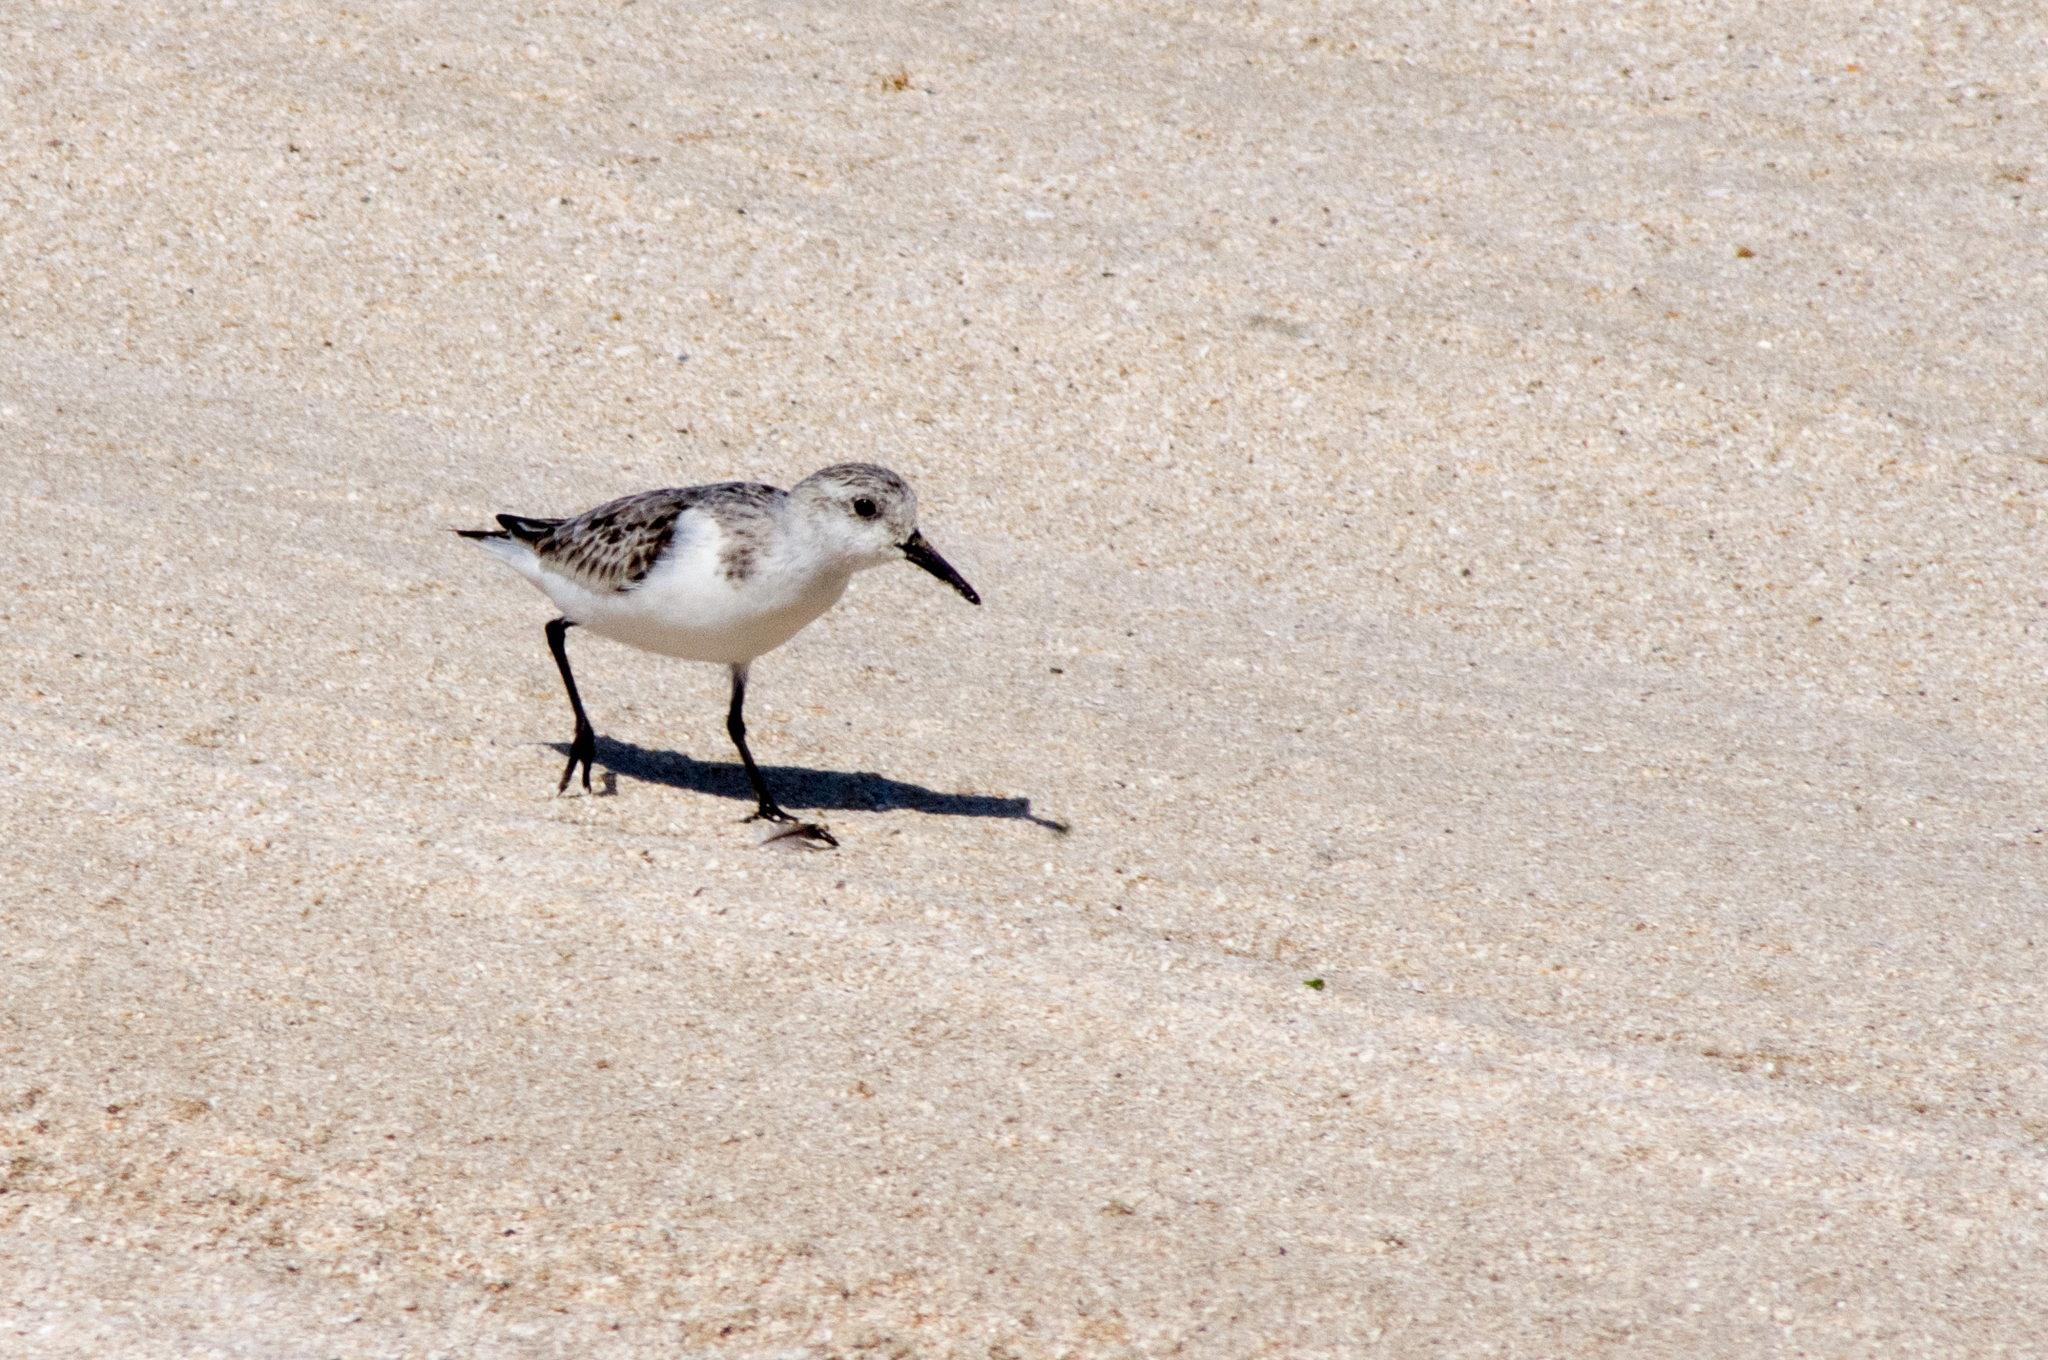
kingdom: Animalia
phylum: Chordata
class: Aves
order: Charadriiformes
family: Scolopacidae
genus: Calidris
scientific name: Calidris alba
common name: Sanderling
